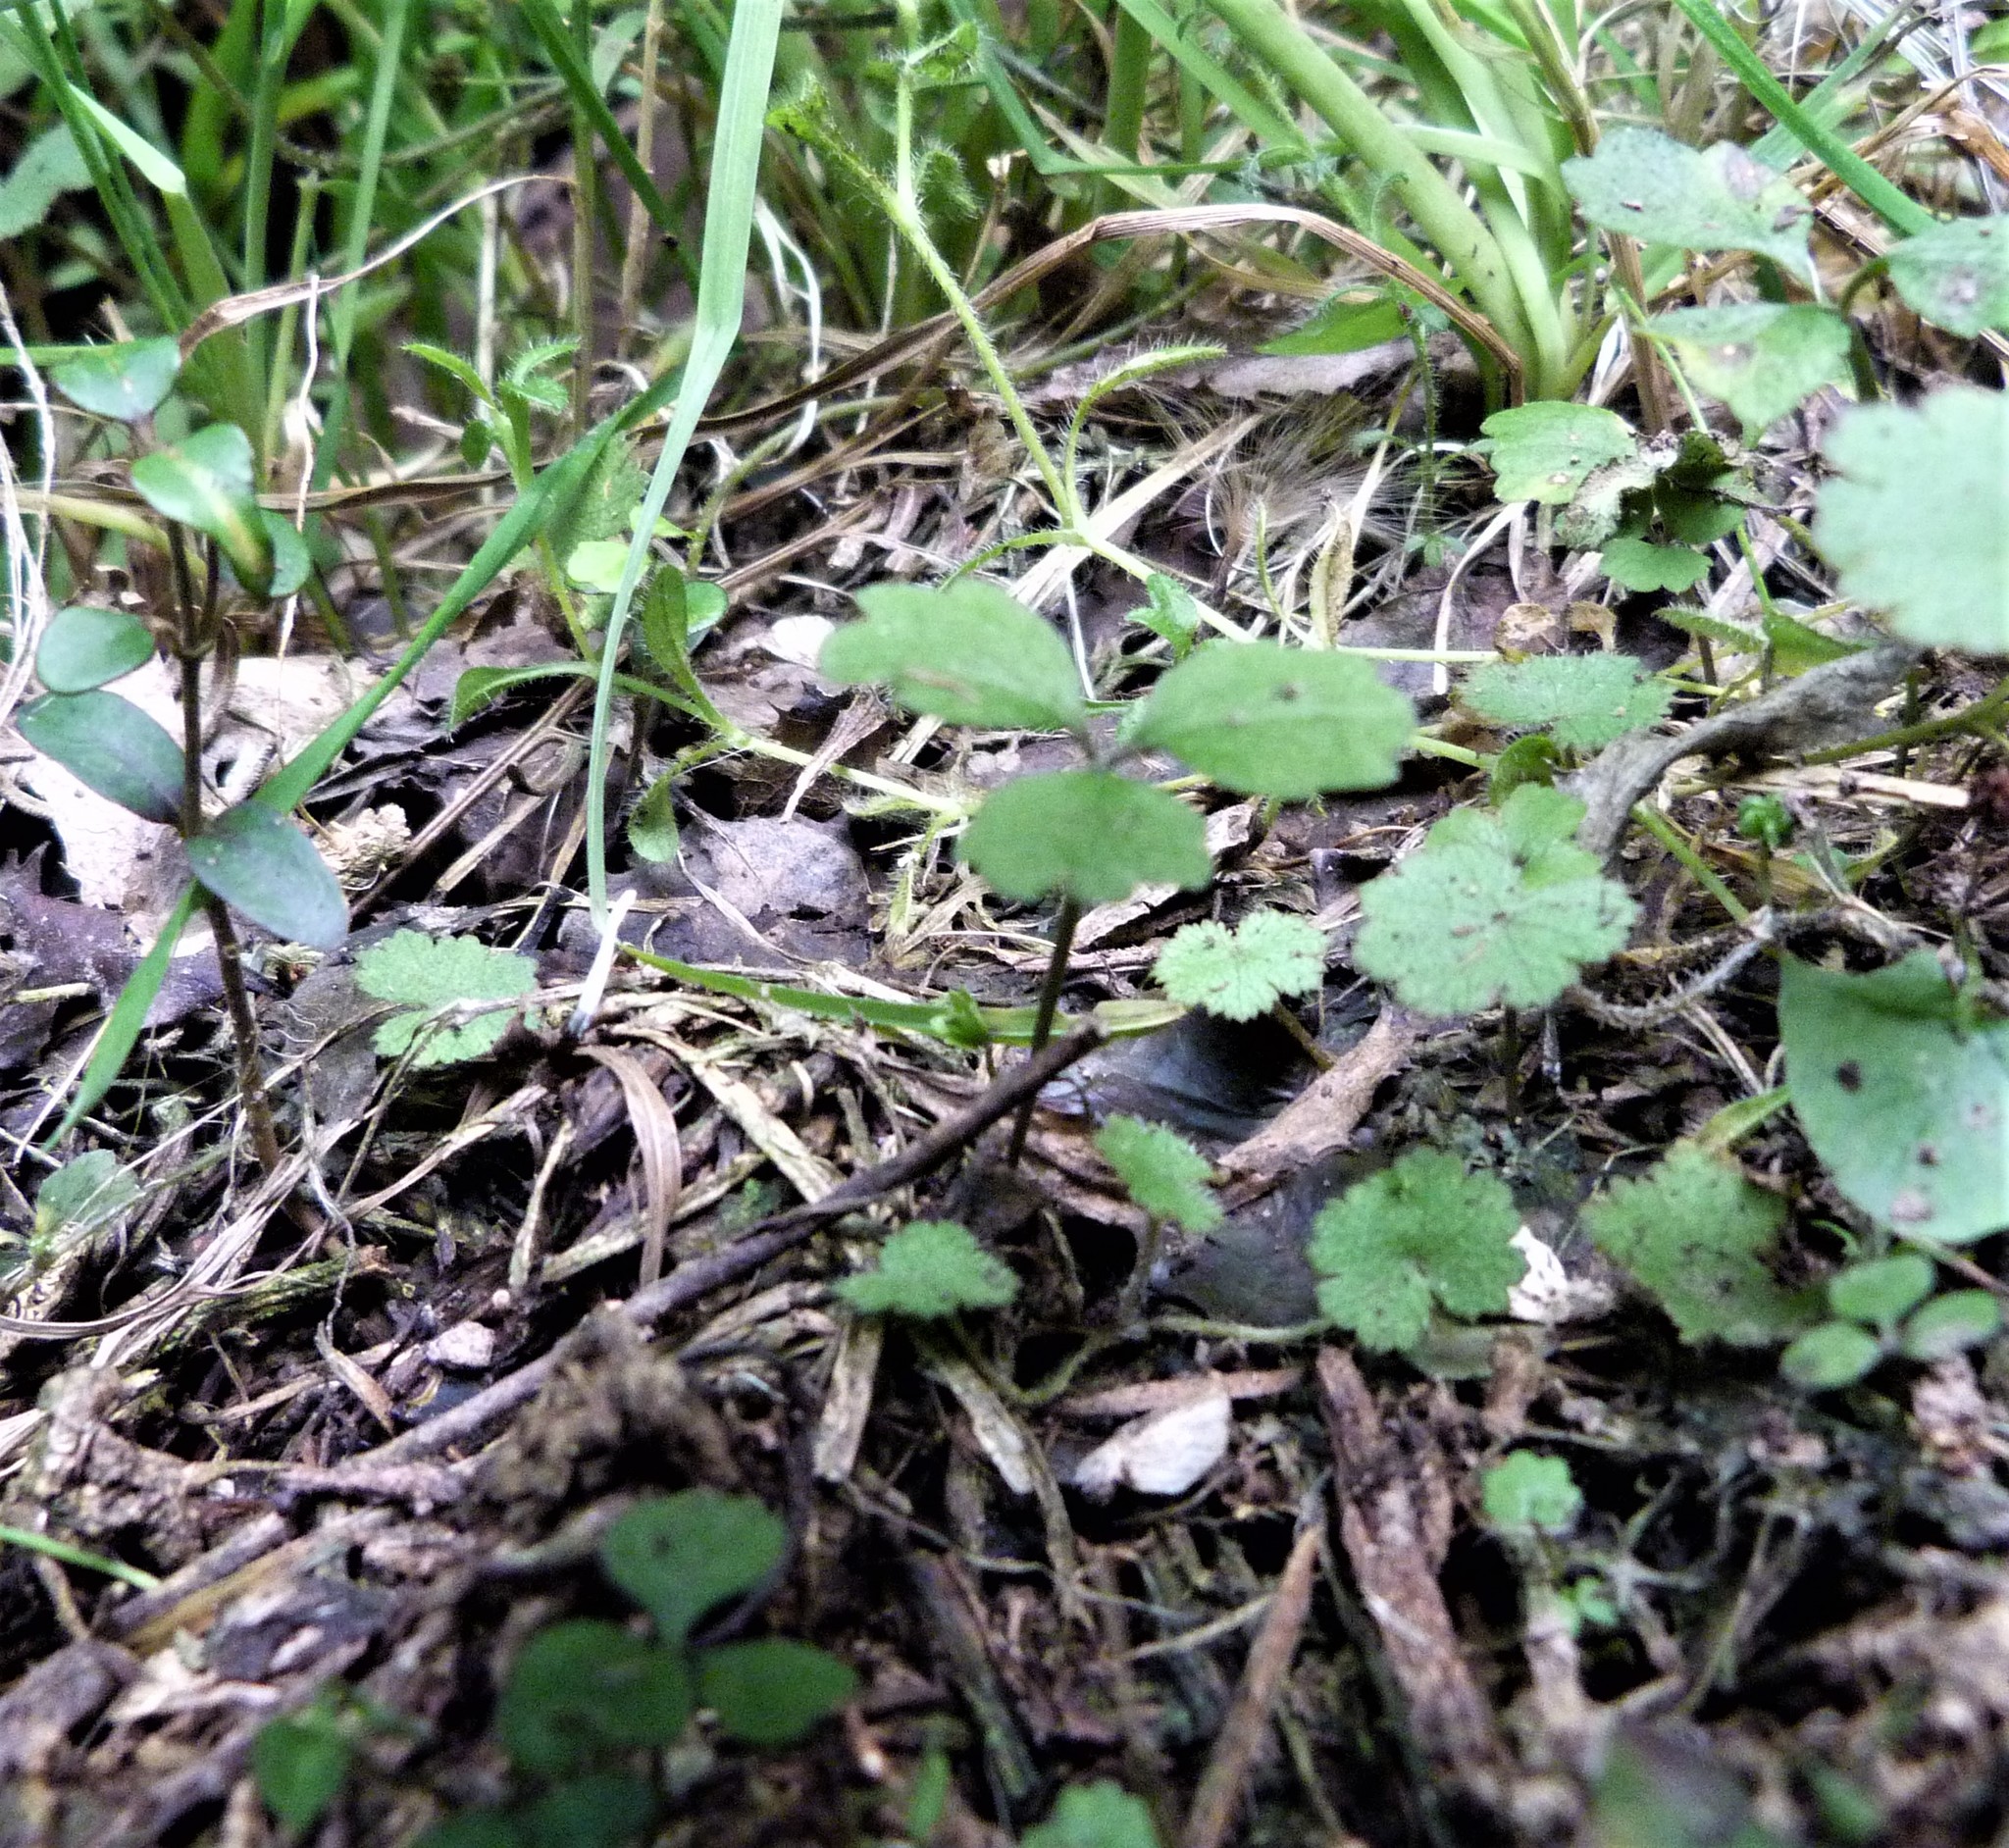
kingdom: Plantae
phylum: Tracheophyta
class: Magnoliopsida
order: Apiales
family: Apiaceae
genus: Azorella
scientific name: Azorella hookeri
